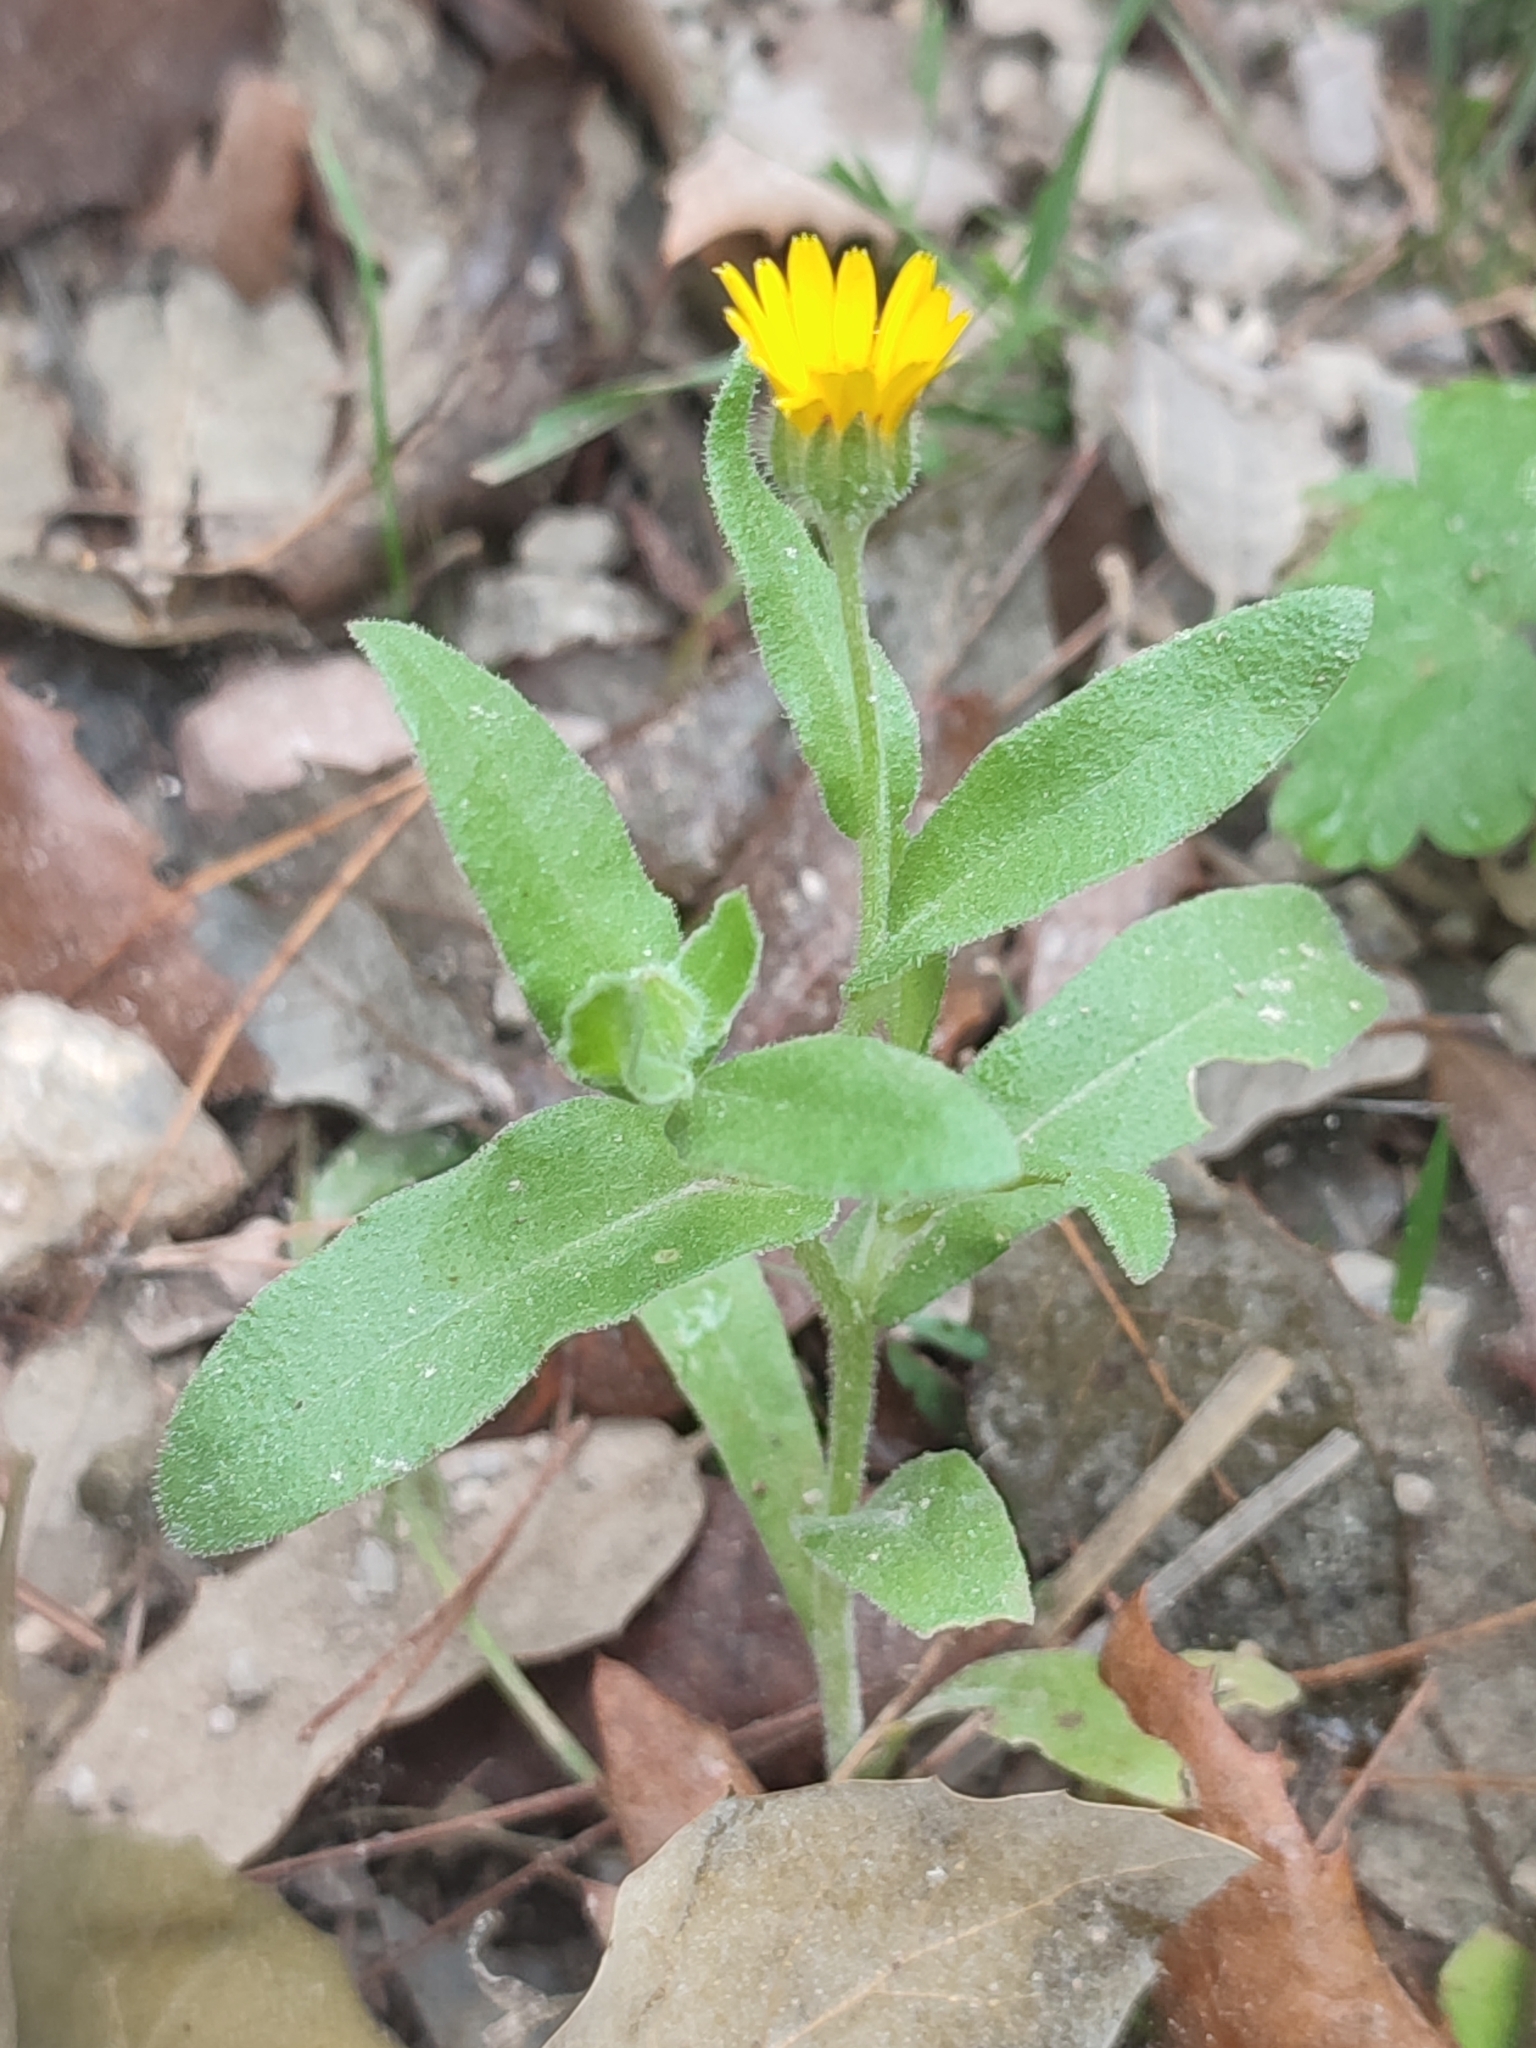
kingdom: Plantae
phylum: Tracheophyta
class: Magnoliopsida
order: Asterales
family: Asteraceae
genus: Calendula
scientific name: Calendula arvensis
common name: Field marigold
